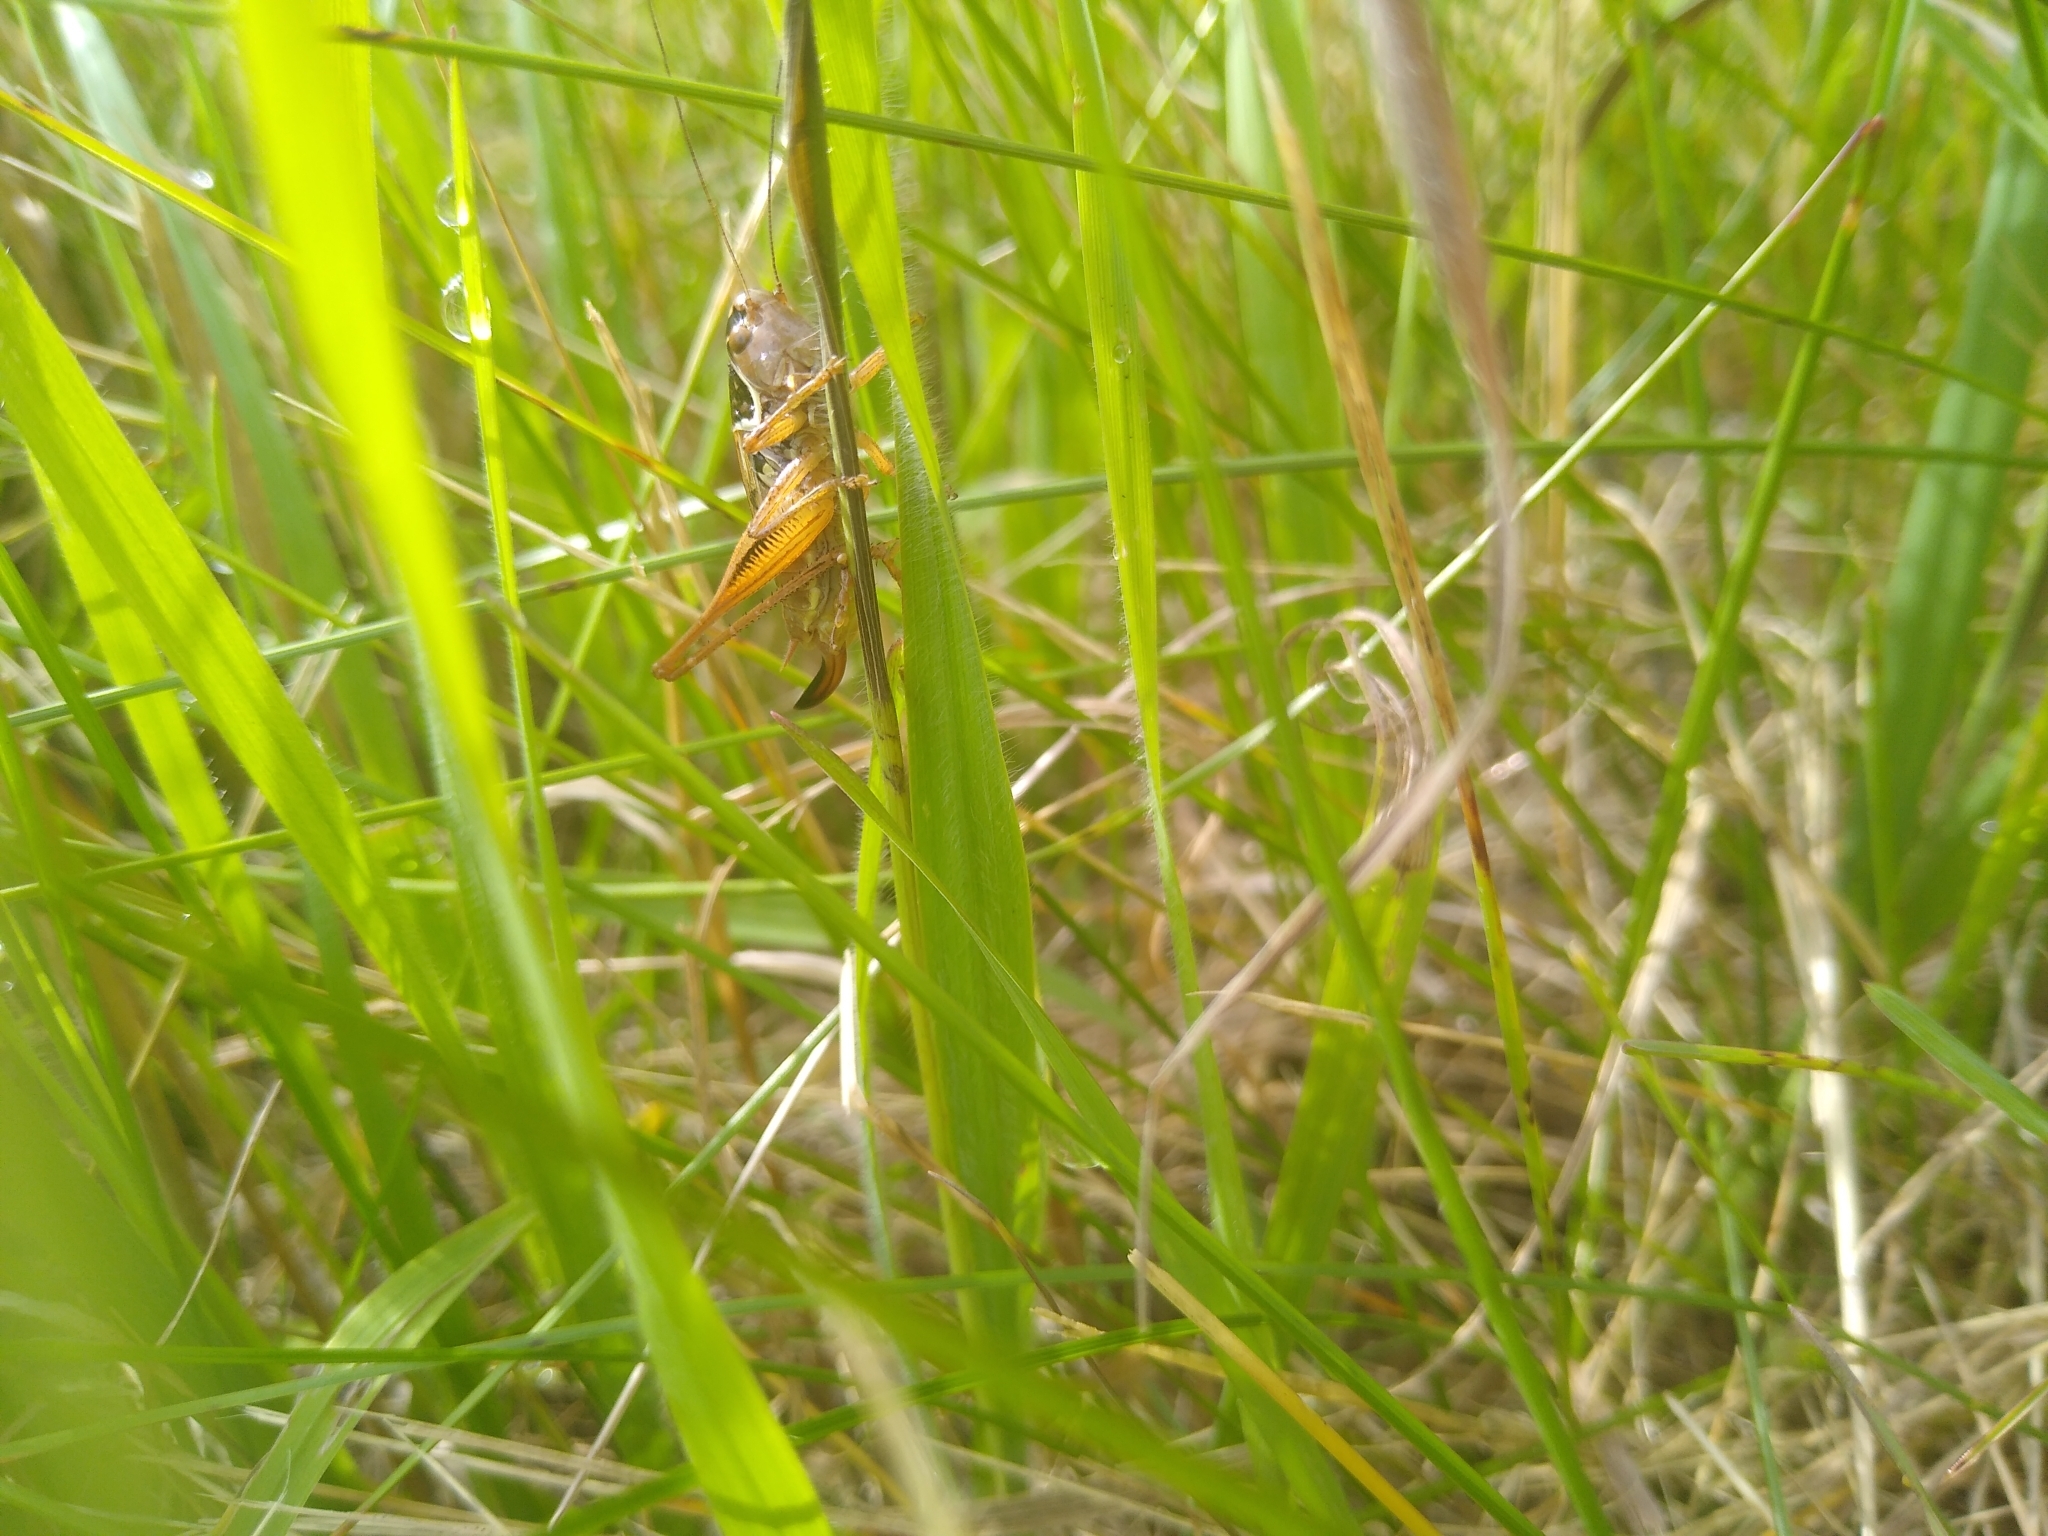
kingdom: Animalia
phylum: Arthropoda
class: Insecta
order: Orthoptera
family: Tettigoniidae
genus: Roeseliana
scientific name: Roeseliana roeselii
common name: Roesel's bush cricket
